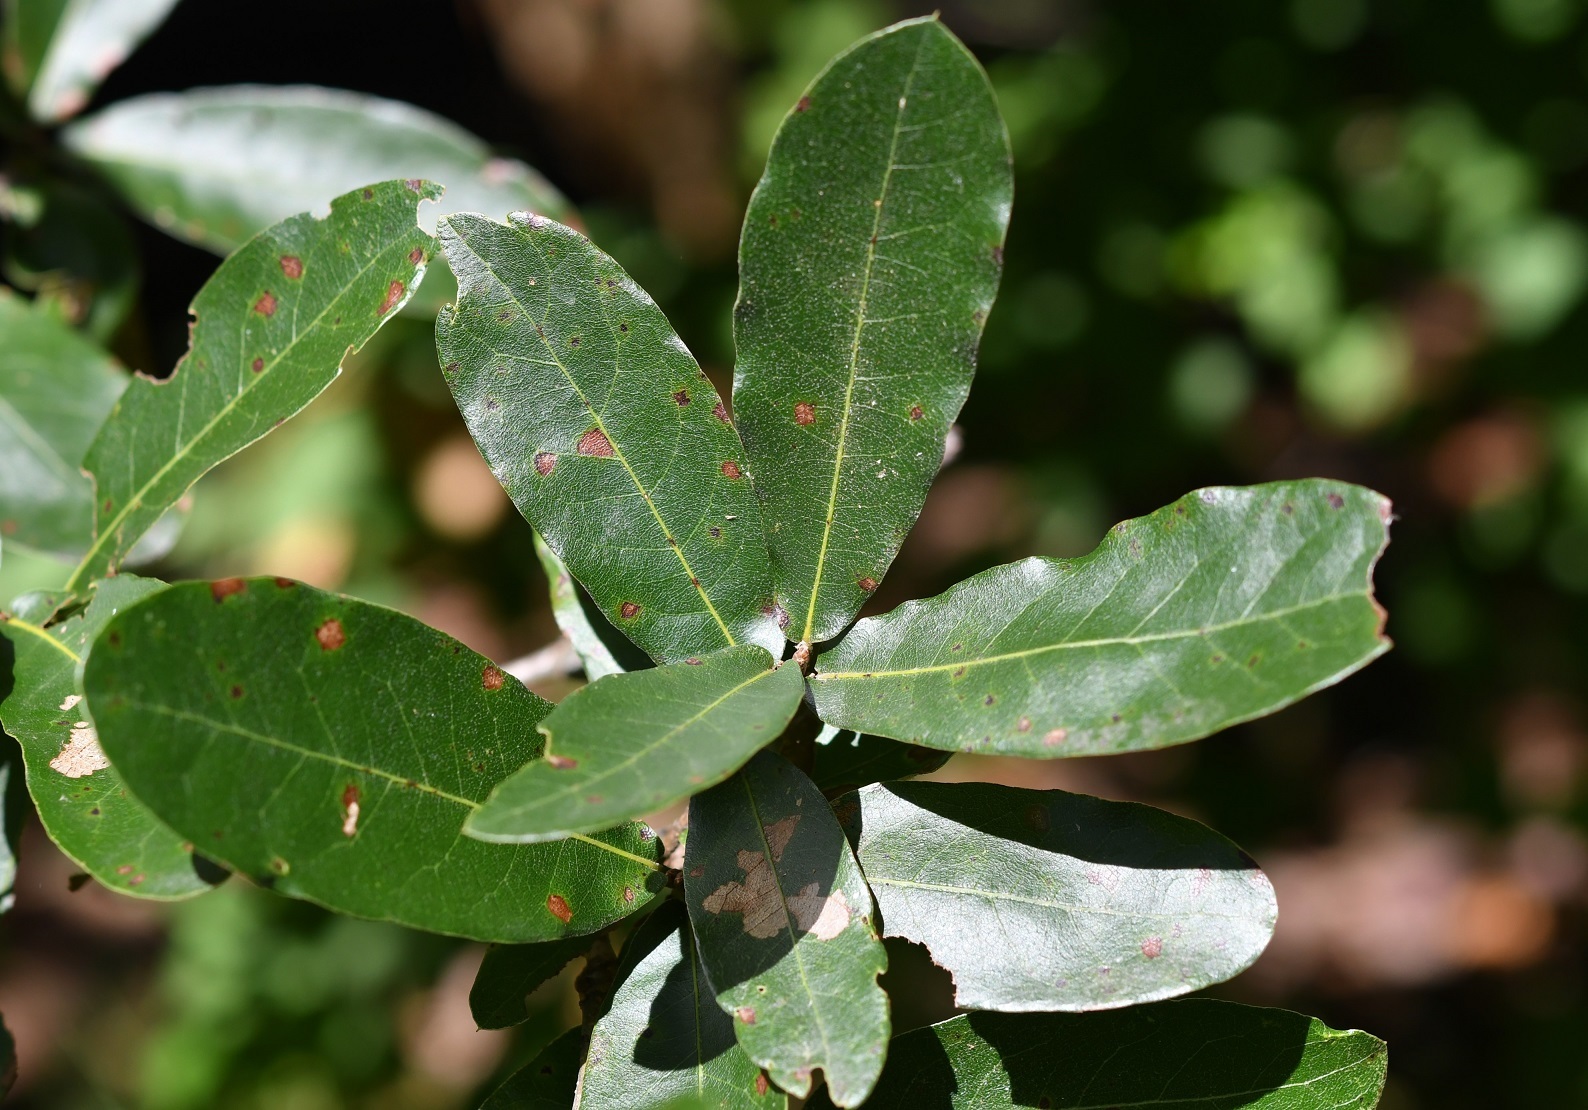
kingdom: Plantae
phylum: Tracheophyta
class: Magnoliopsida
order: Fagales
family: Fagaceae
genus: Quercus
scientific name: Quercus crispipilis
